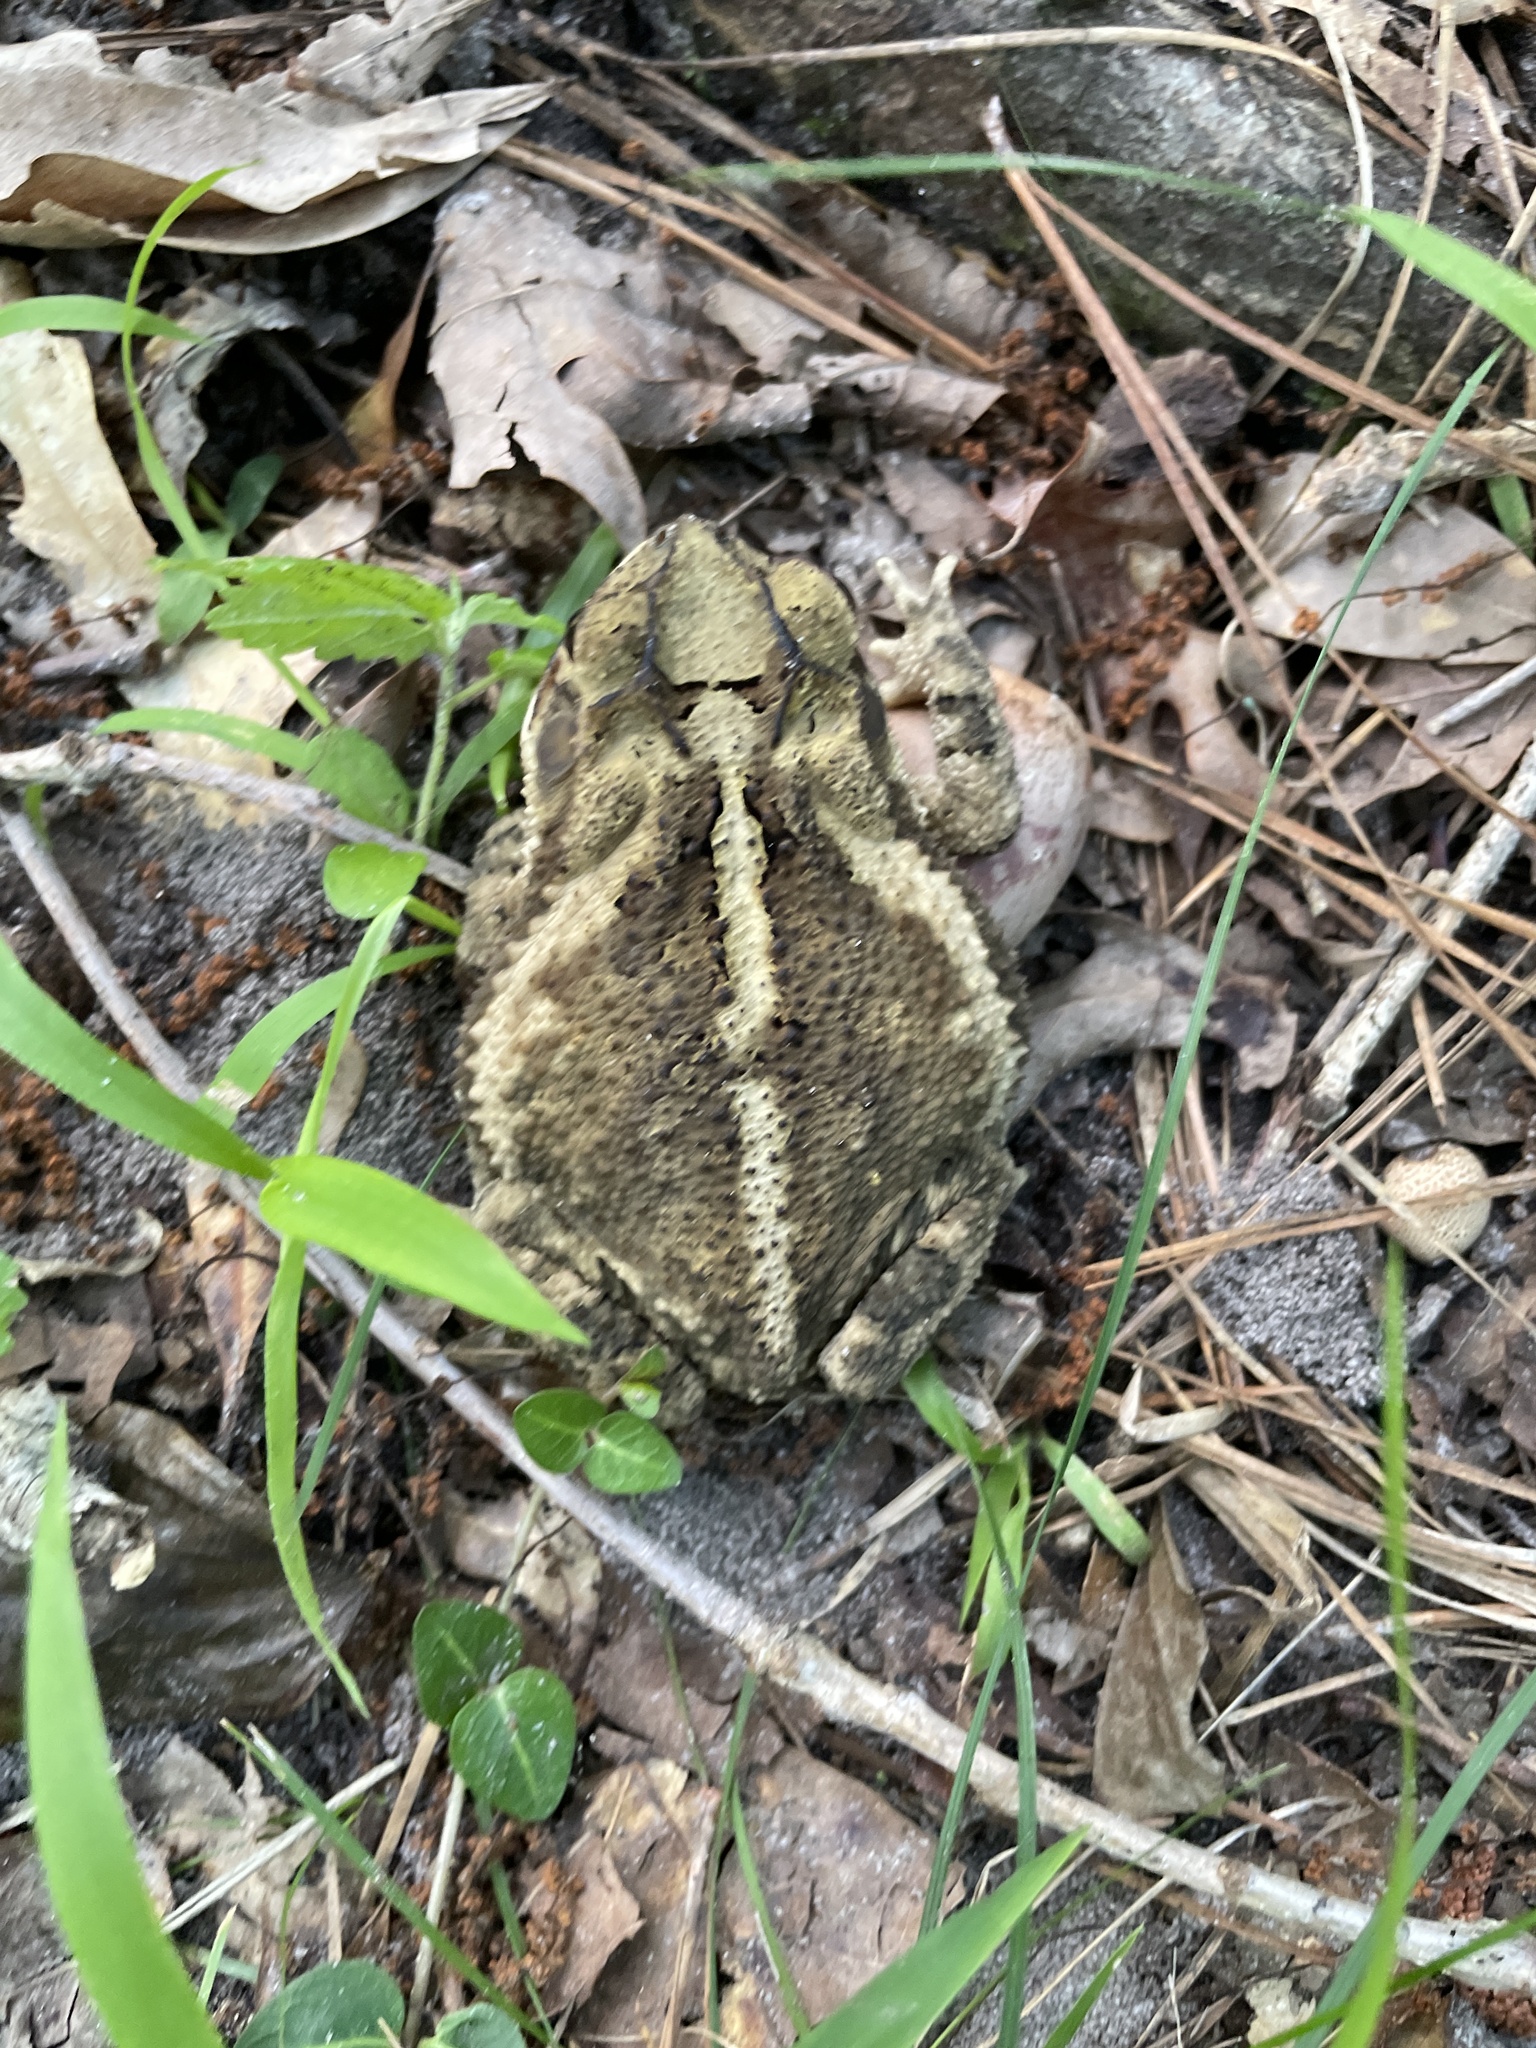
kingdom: Animalia
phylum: Chordata
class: Amphibia
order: Anura
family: Bufonidae
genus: Incilius
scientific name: Incilius nebulifer
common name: Gulf coast toad
